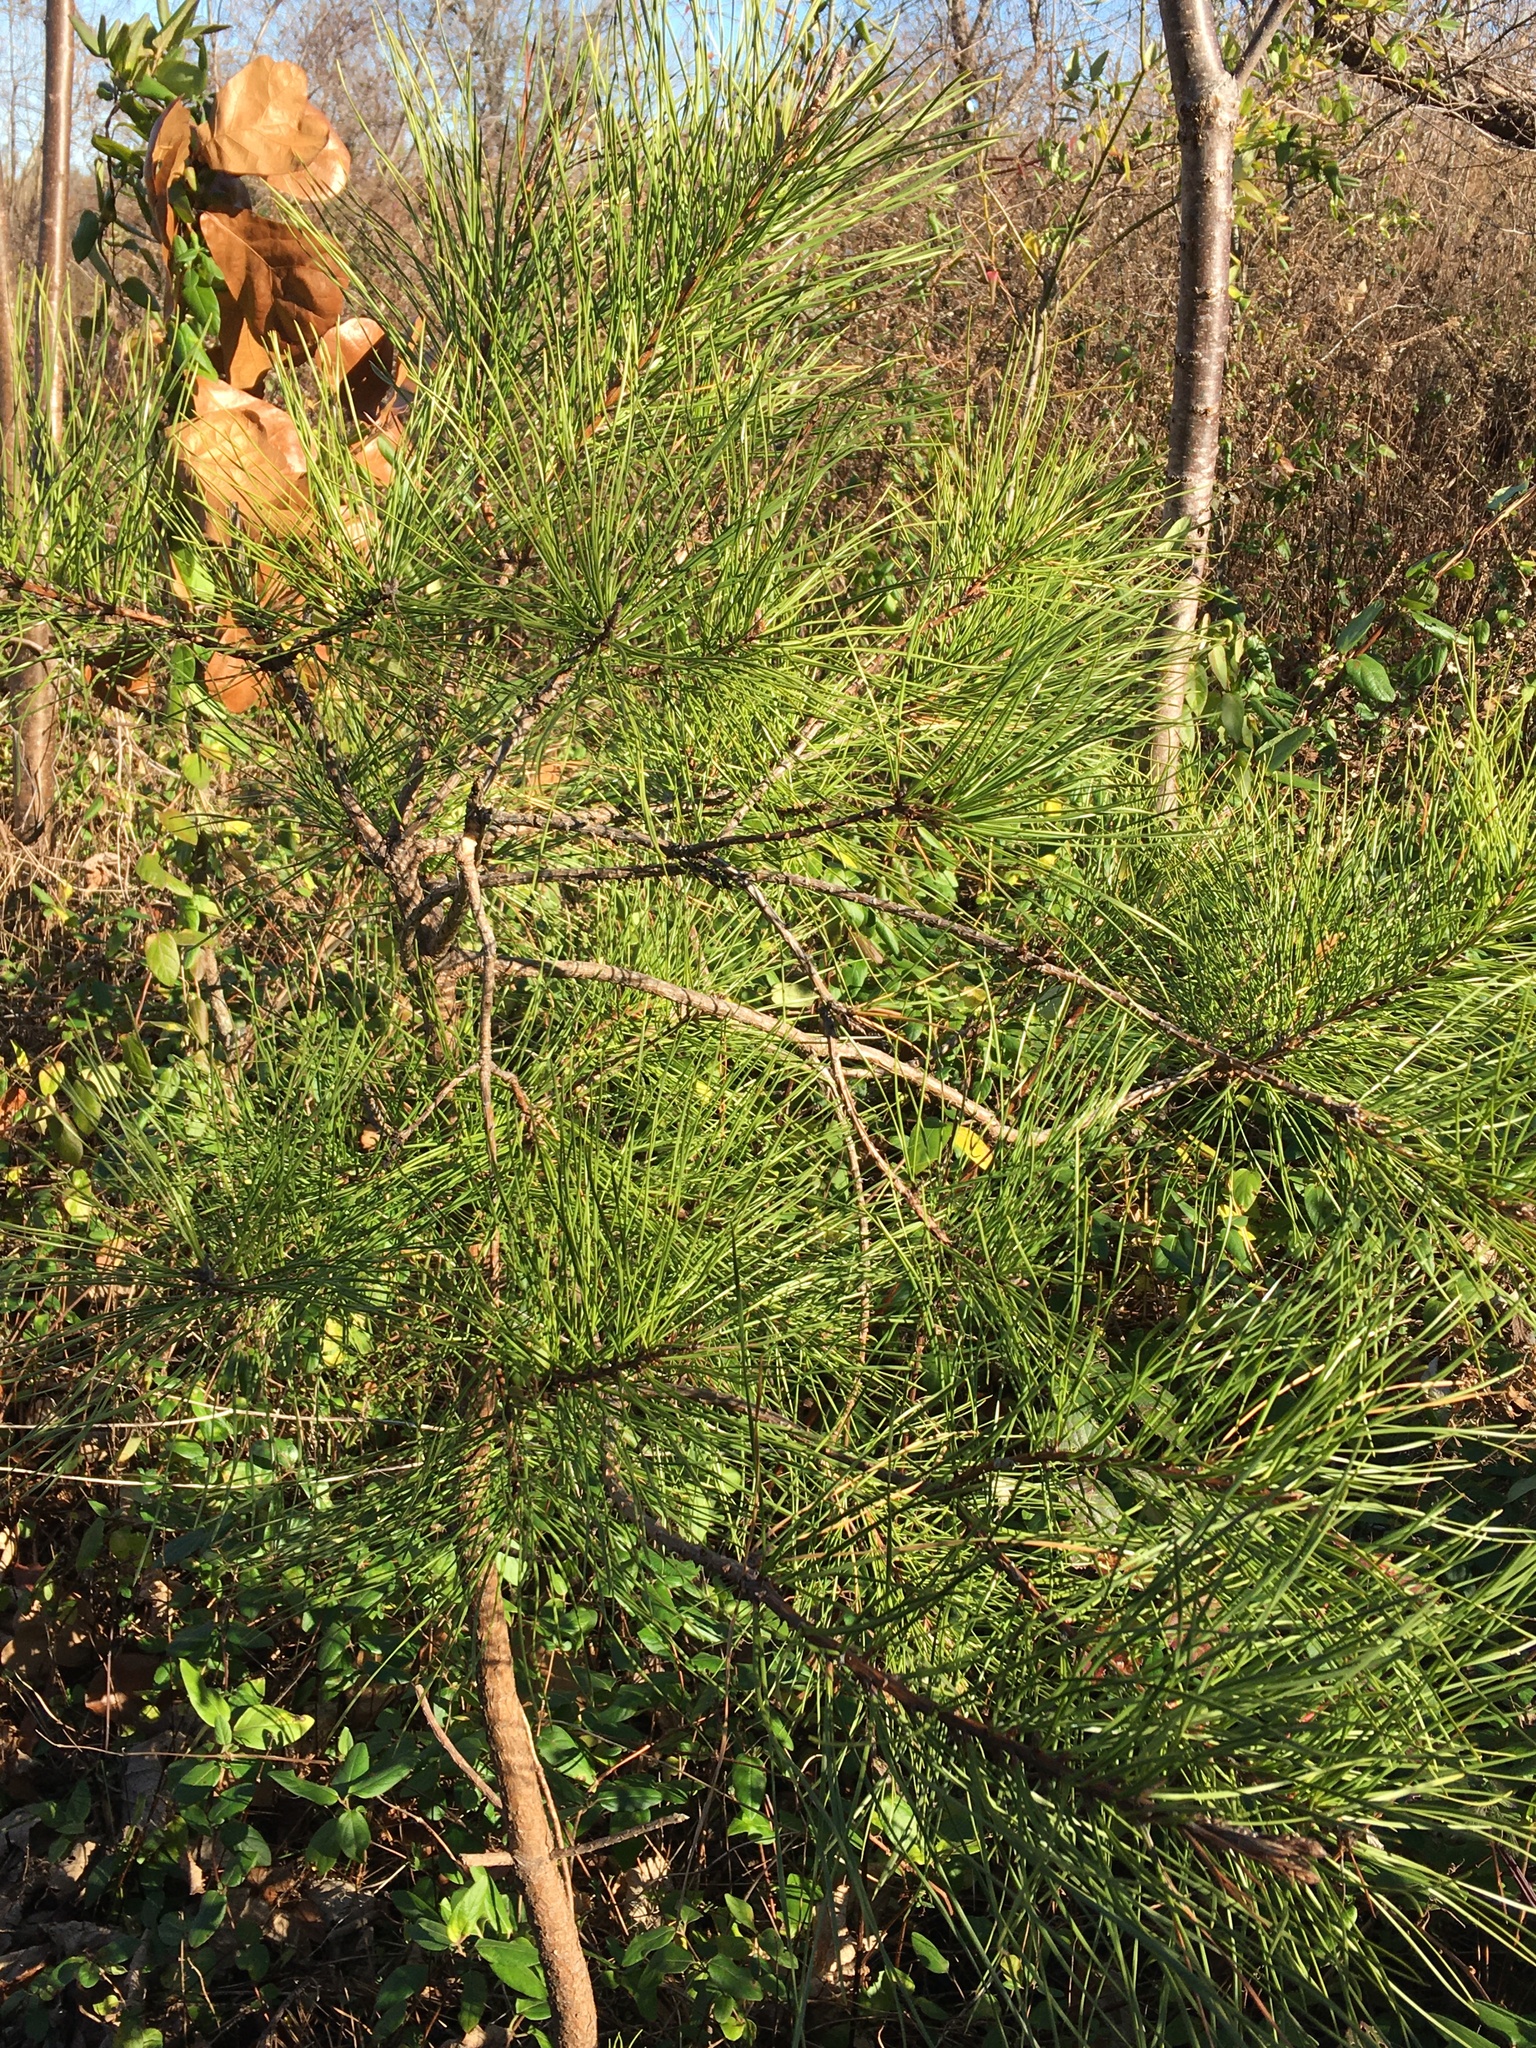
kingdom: Plantae
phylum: Tracheophyta
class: Pinopsida
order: Pinales
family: Pinaceae
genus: Pinus
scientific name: Pinus rigida
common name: Pitch pine
